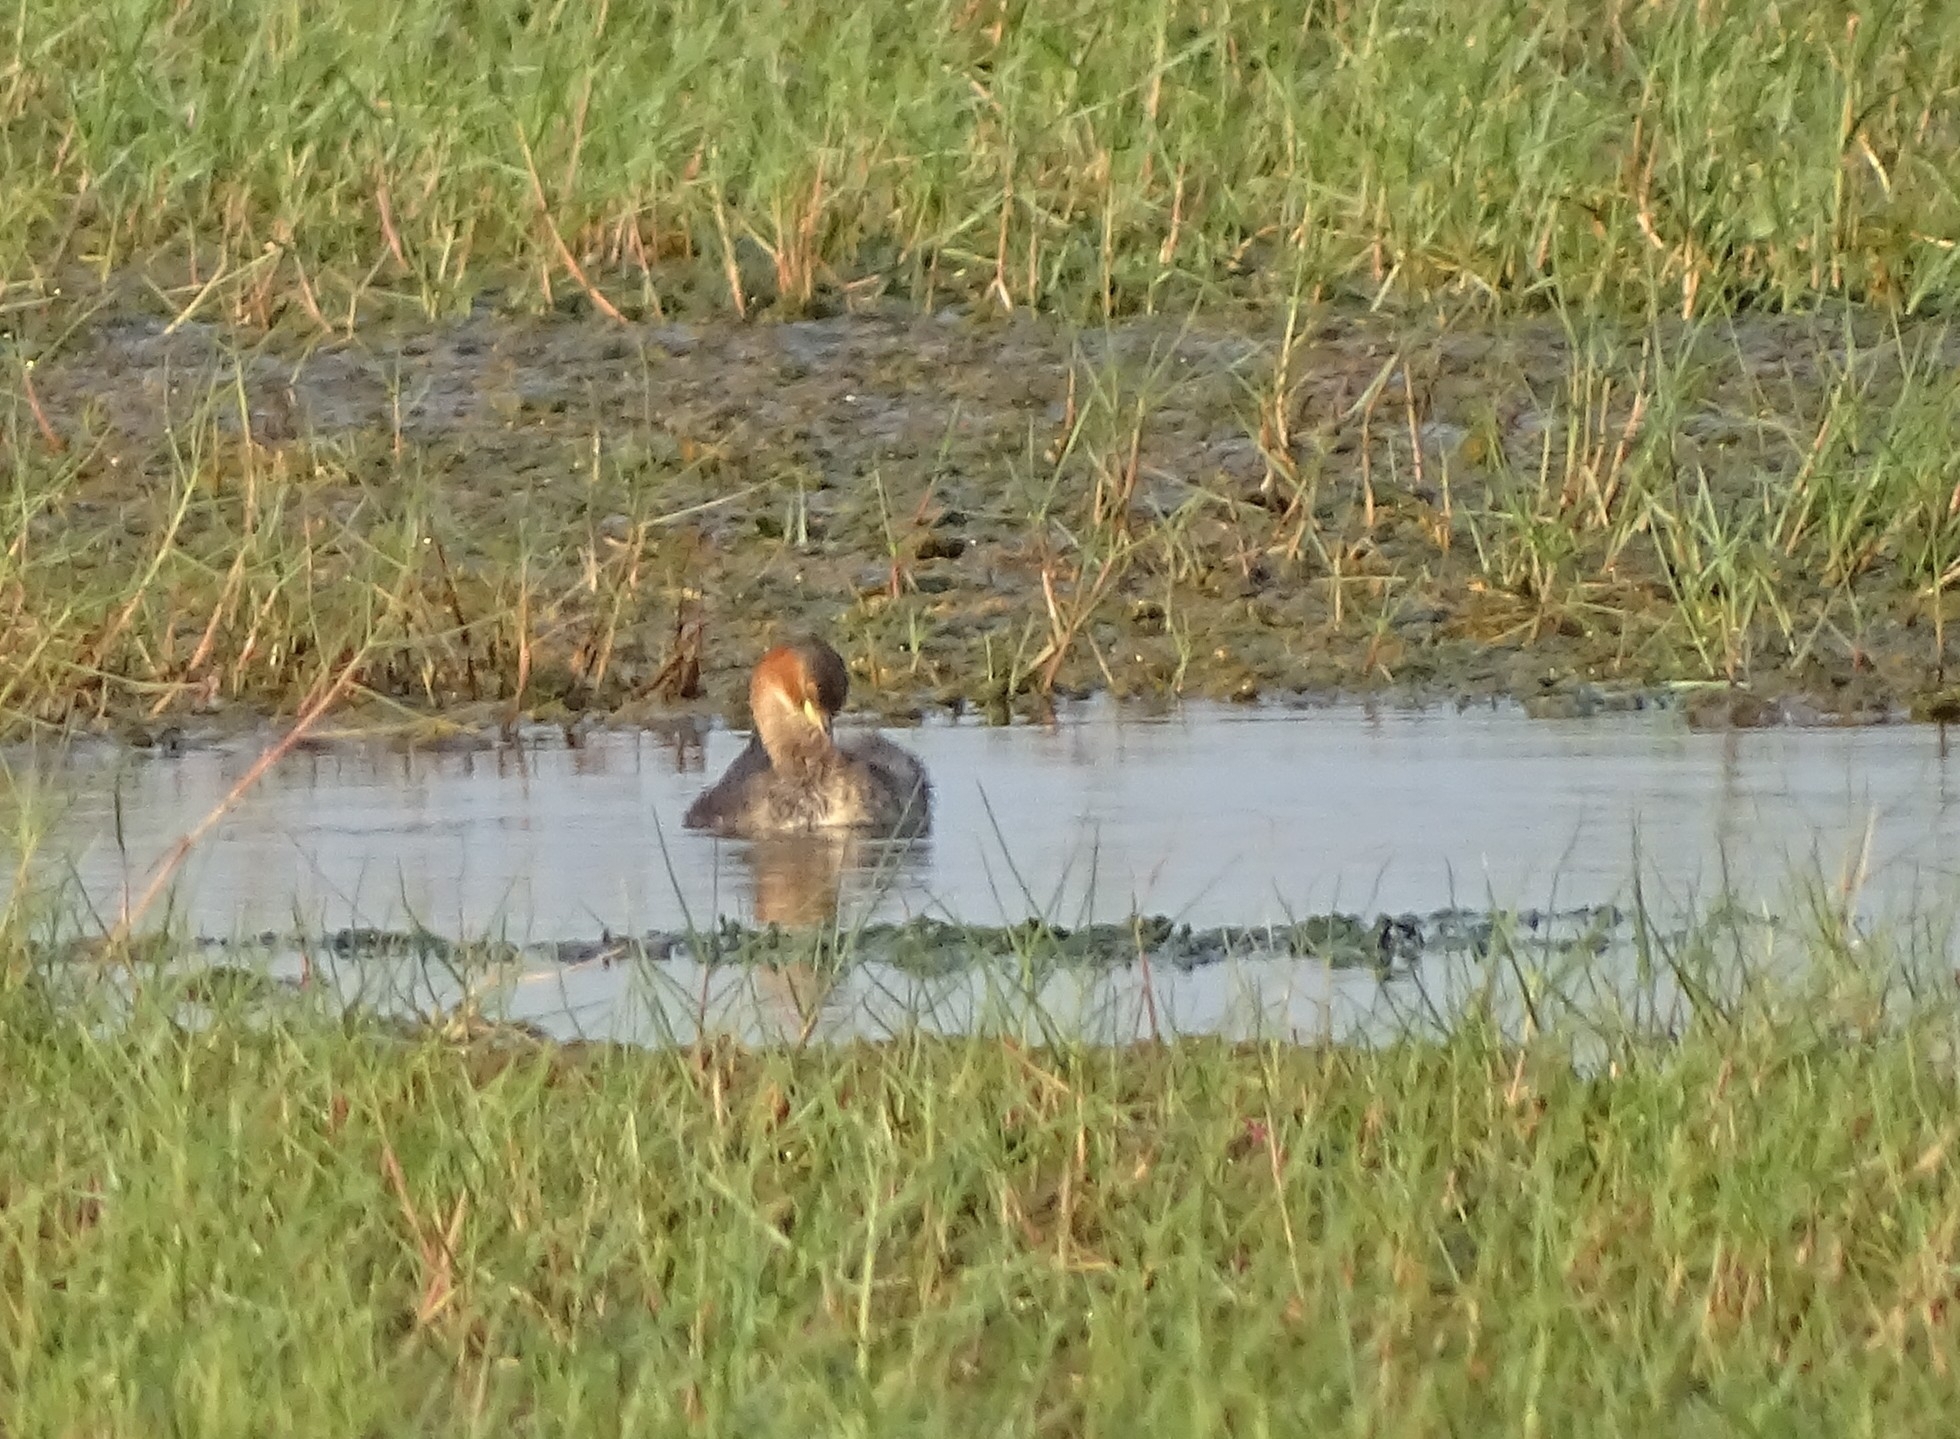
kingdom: Animalia
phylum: Chordata
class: Aves
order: Podicipediformes
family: Podicipedidae
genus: Tachybaptus
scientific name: Tachybaptus ruficollis
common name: Little grebe
